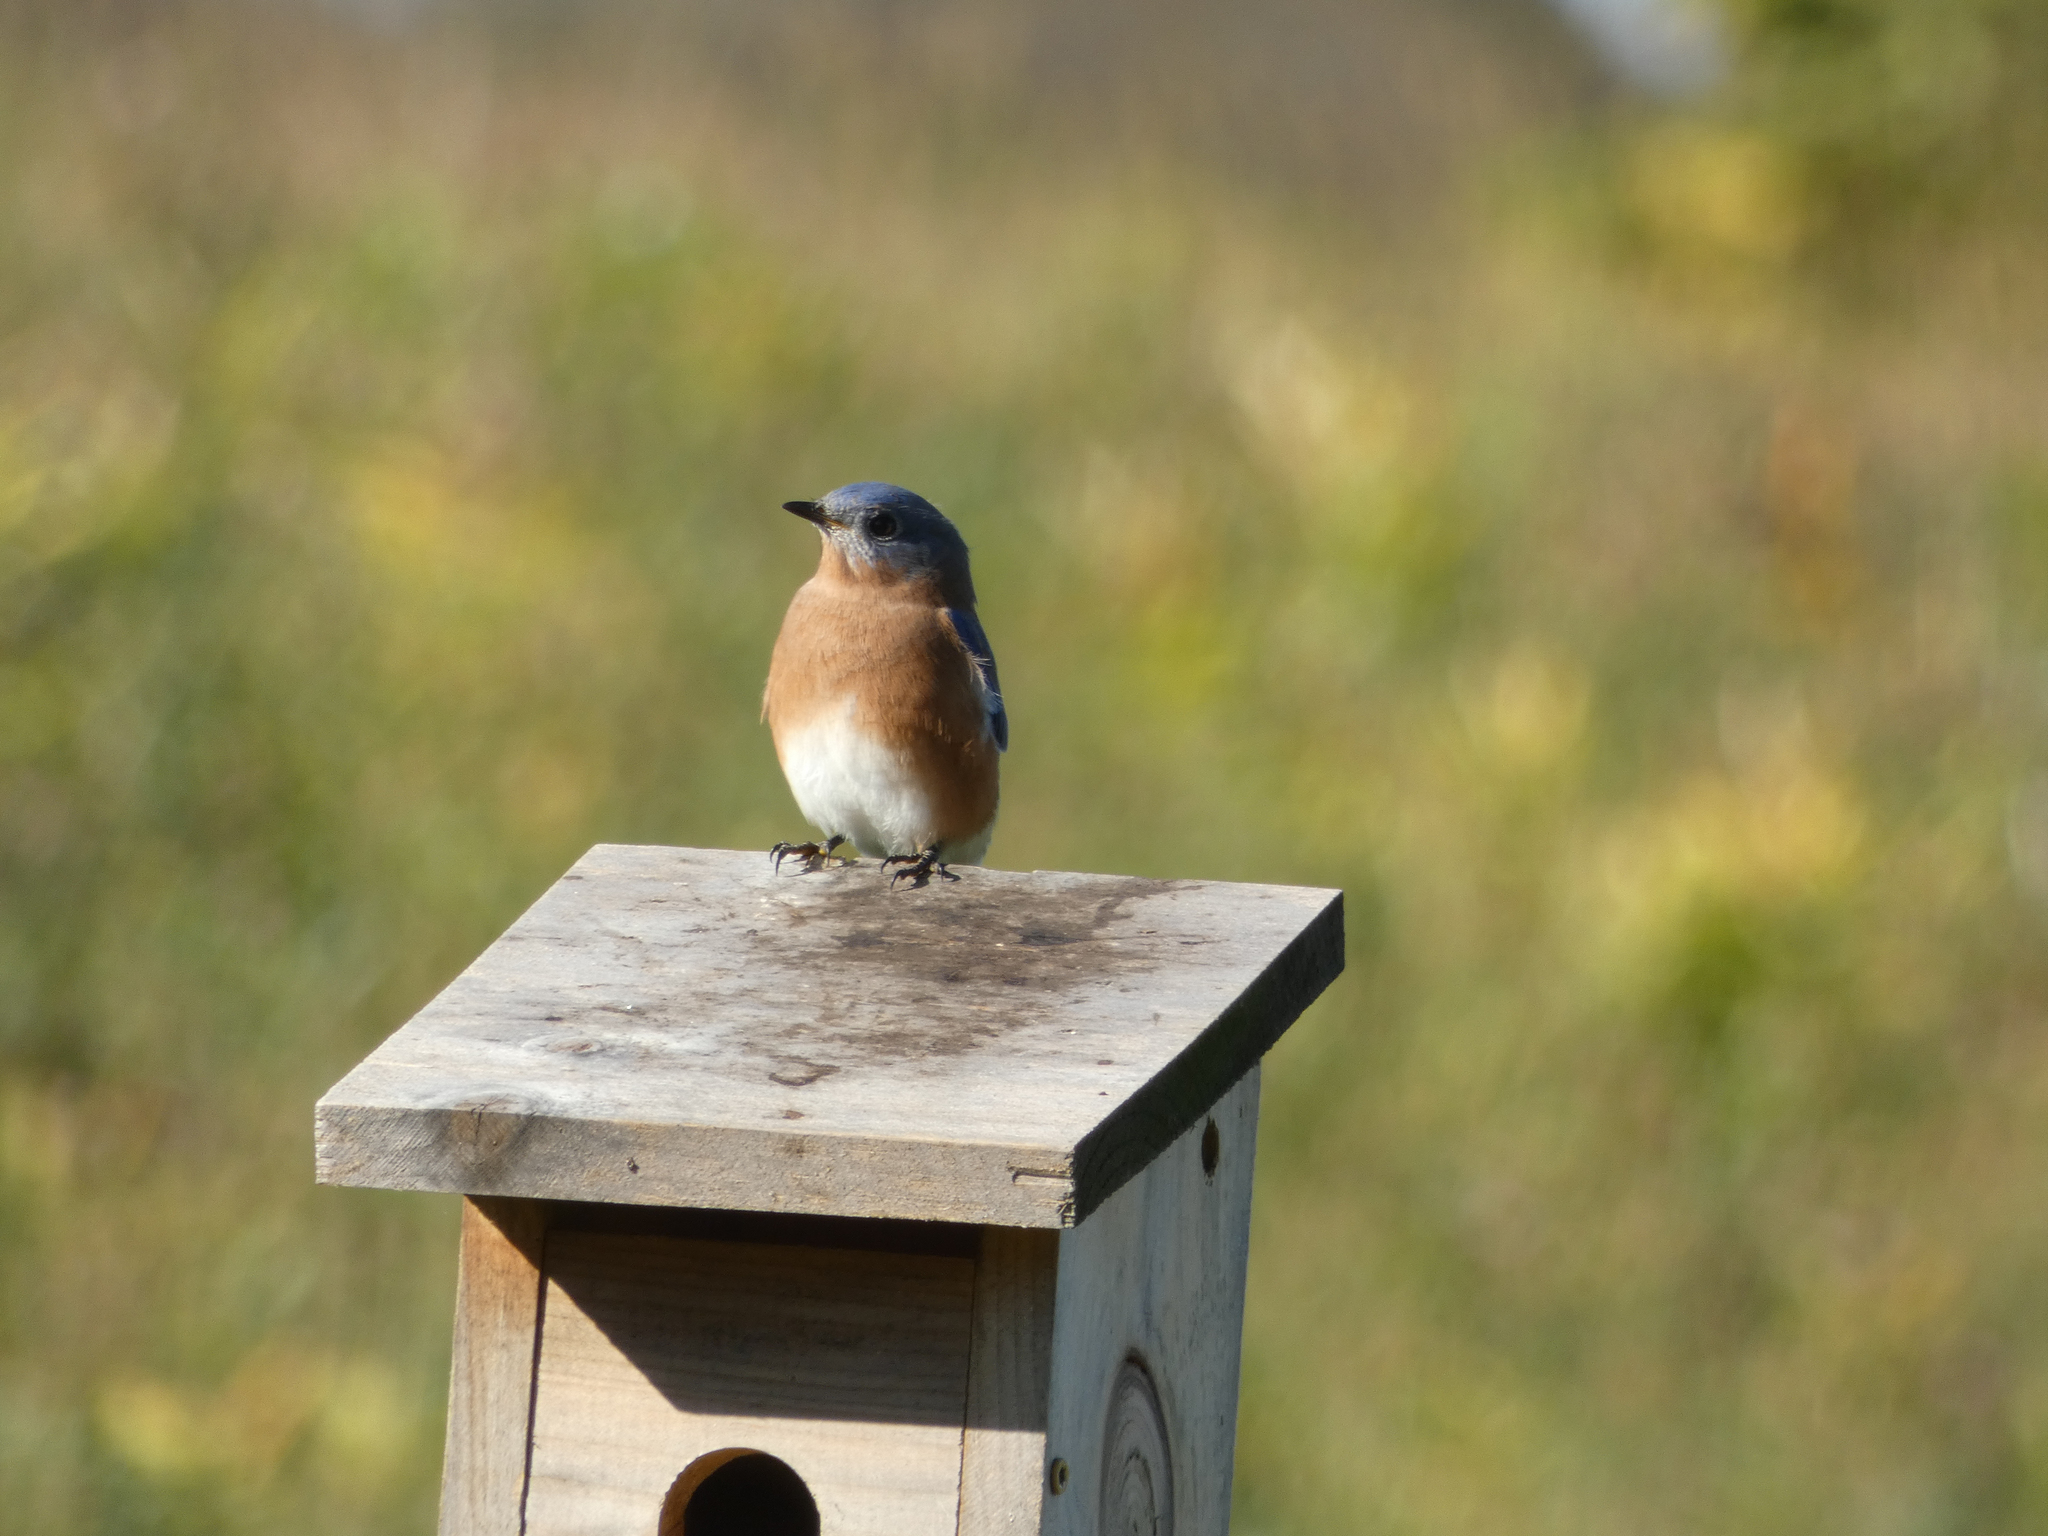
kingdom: Animalia
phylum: Chordata
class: Aves
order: Passeriformes
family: Turdidae
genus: Sialia
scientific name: Sialia sialis
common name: Eastern bluebird
